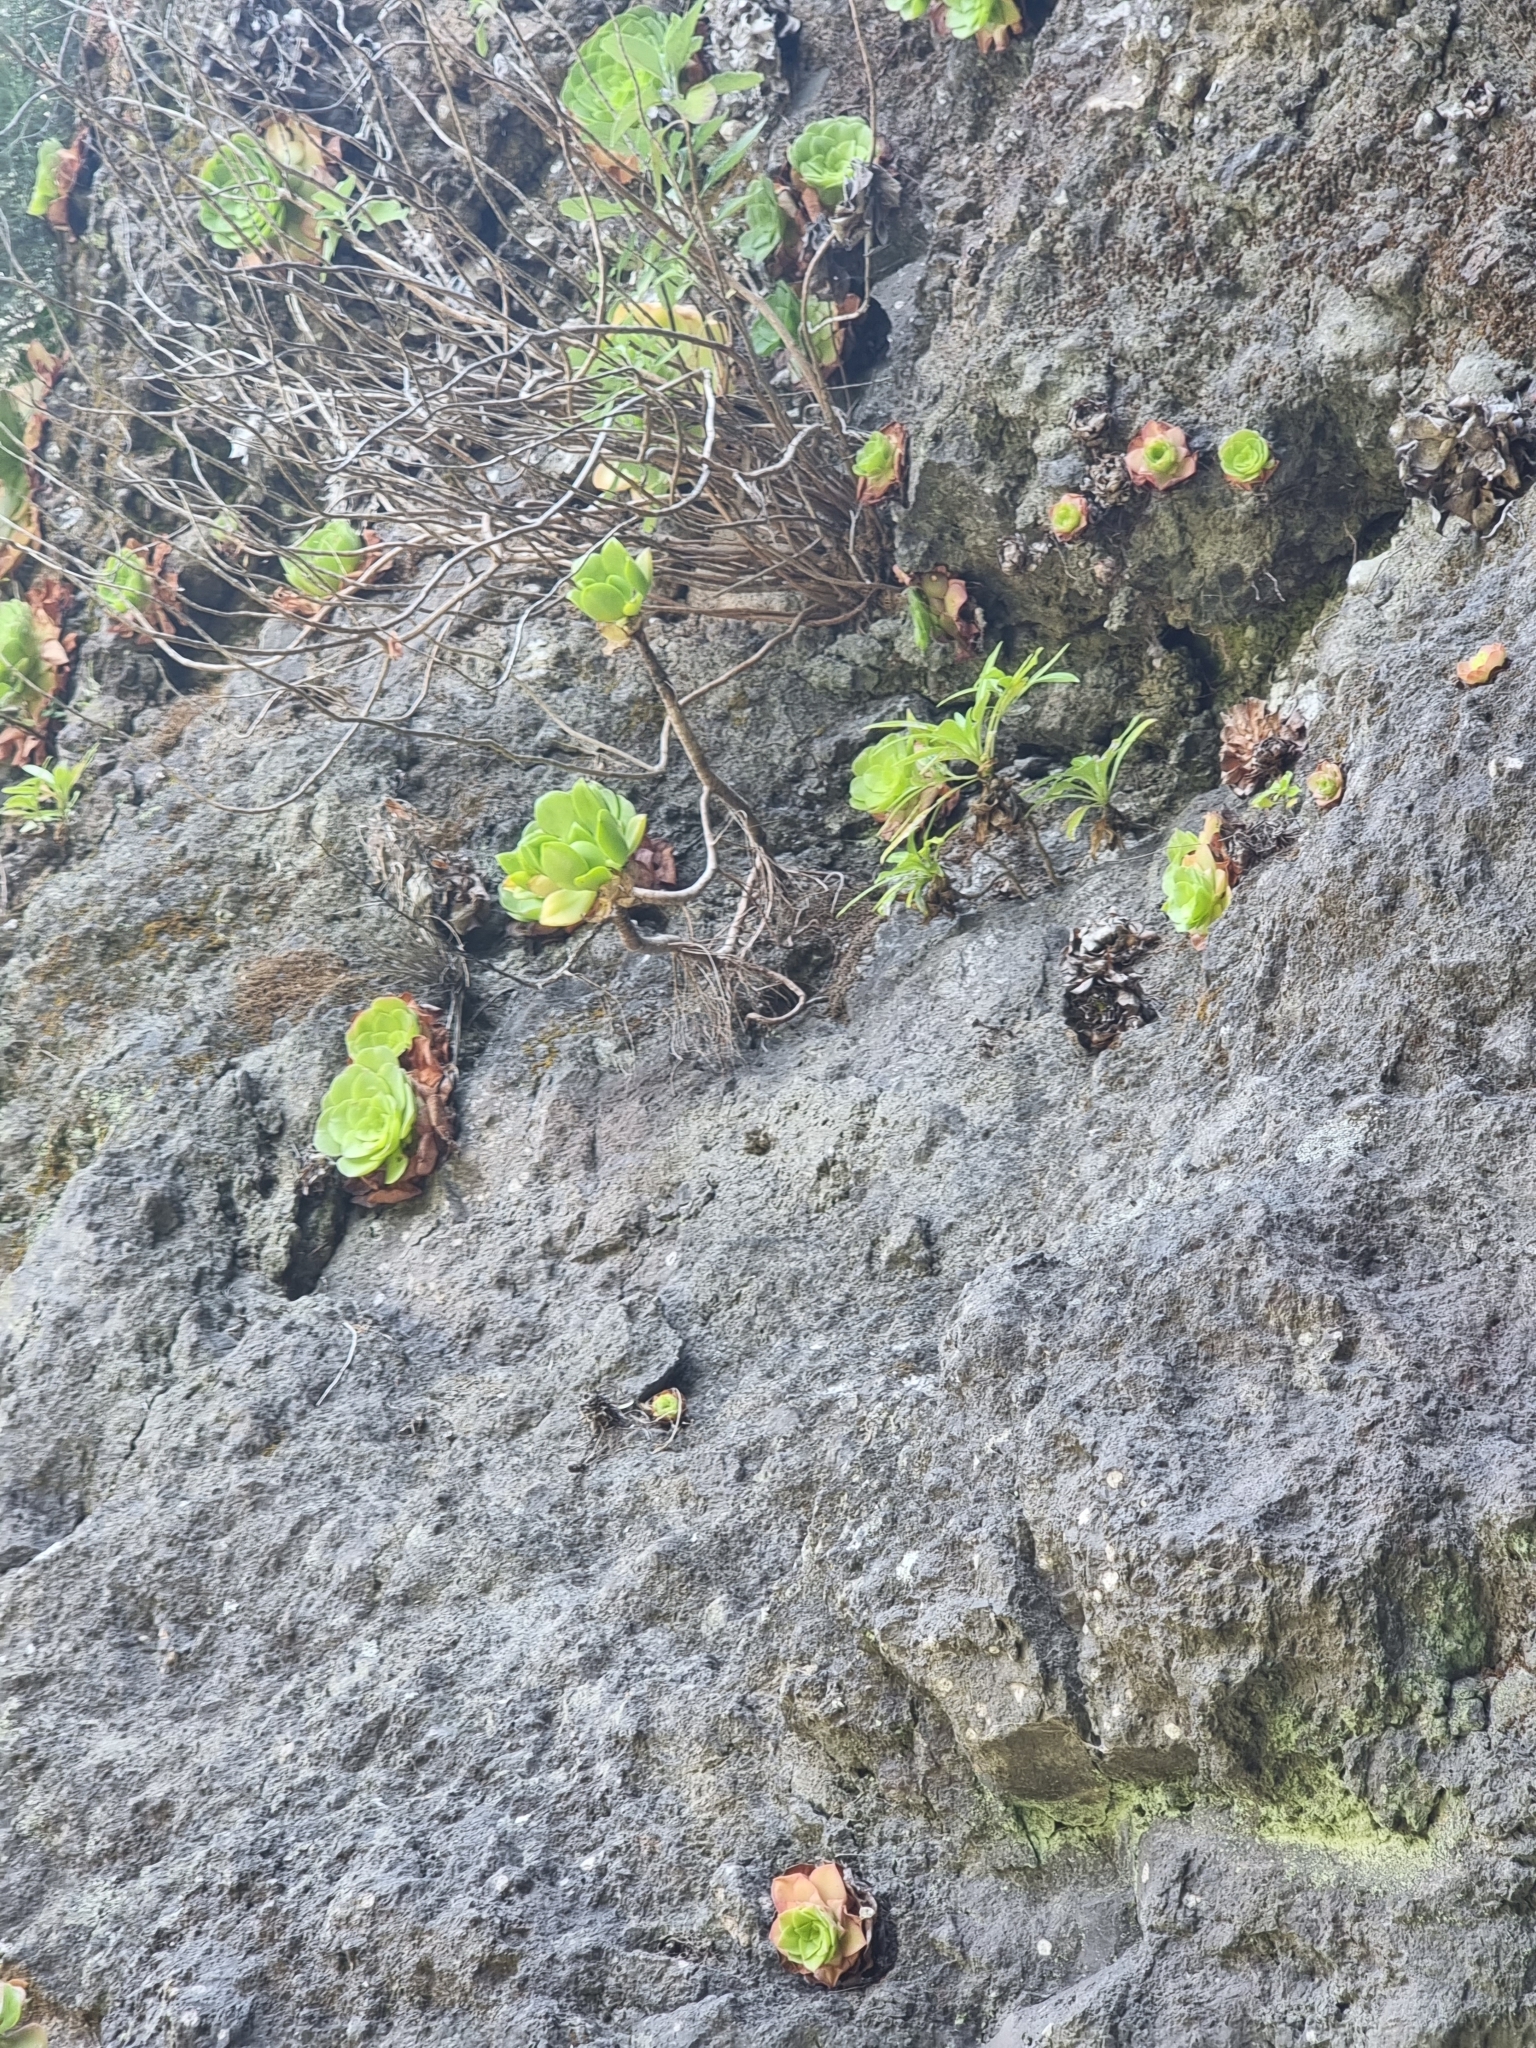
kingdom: Plantae
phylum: Tracheophyta
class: Magnoliopsida
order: Saxifragales
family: Crassulaceae
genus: Aeonium
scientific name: Aeonium glandulosum
